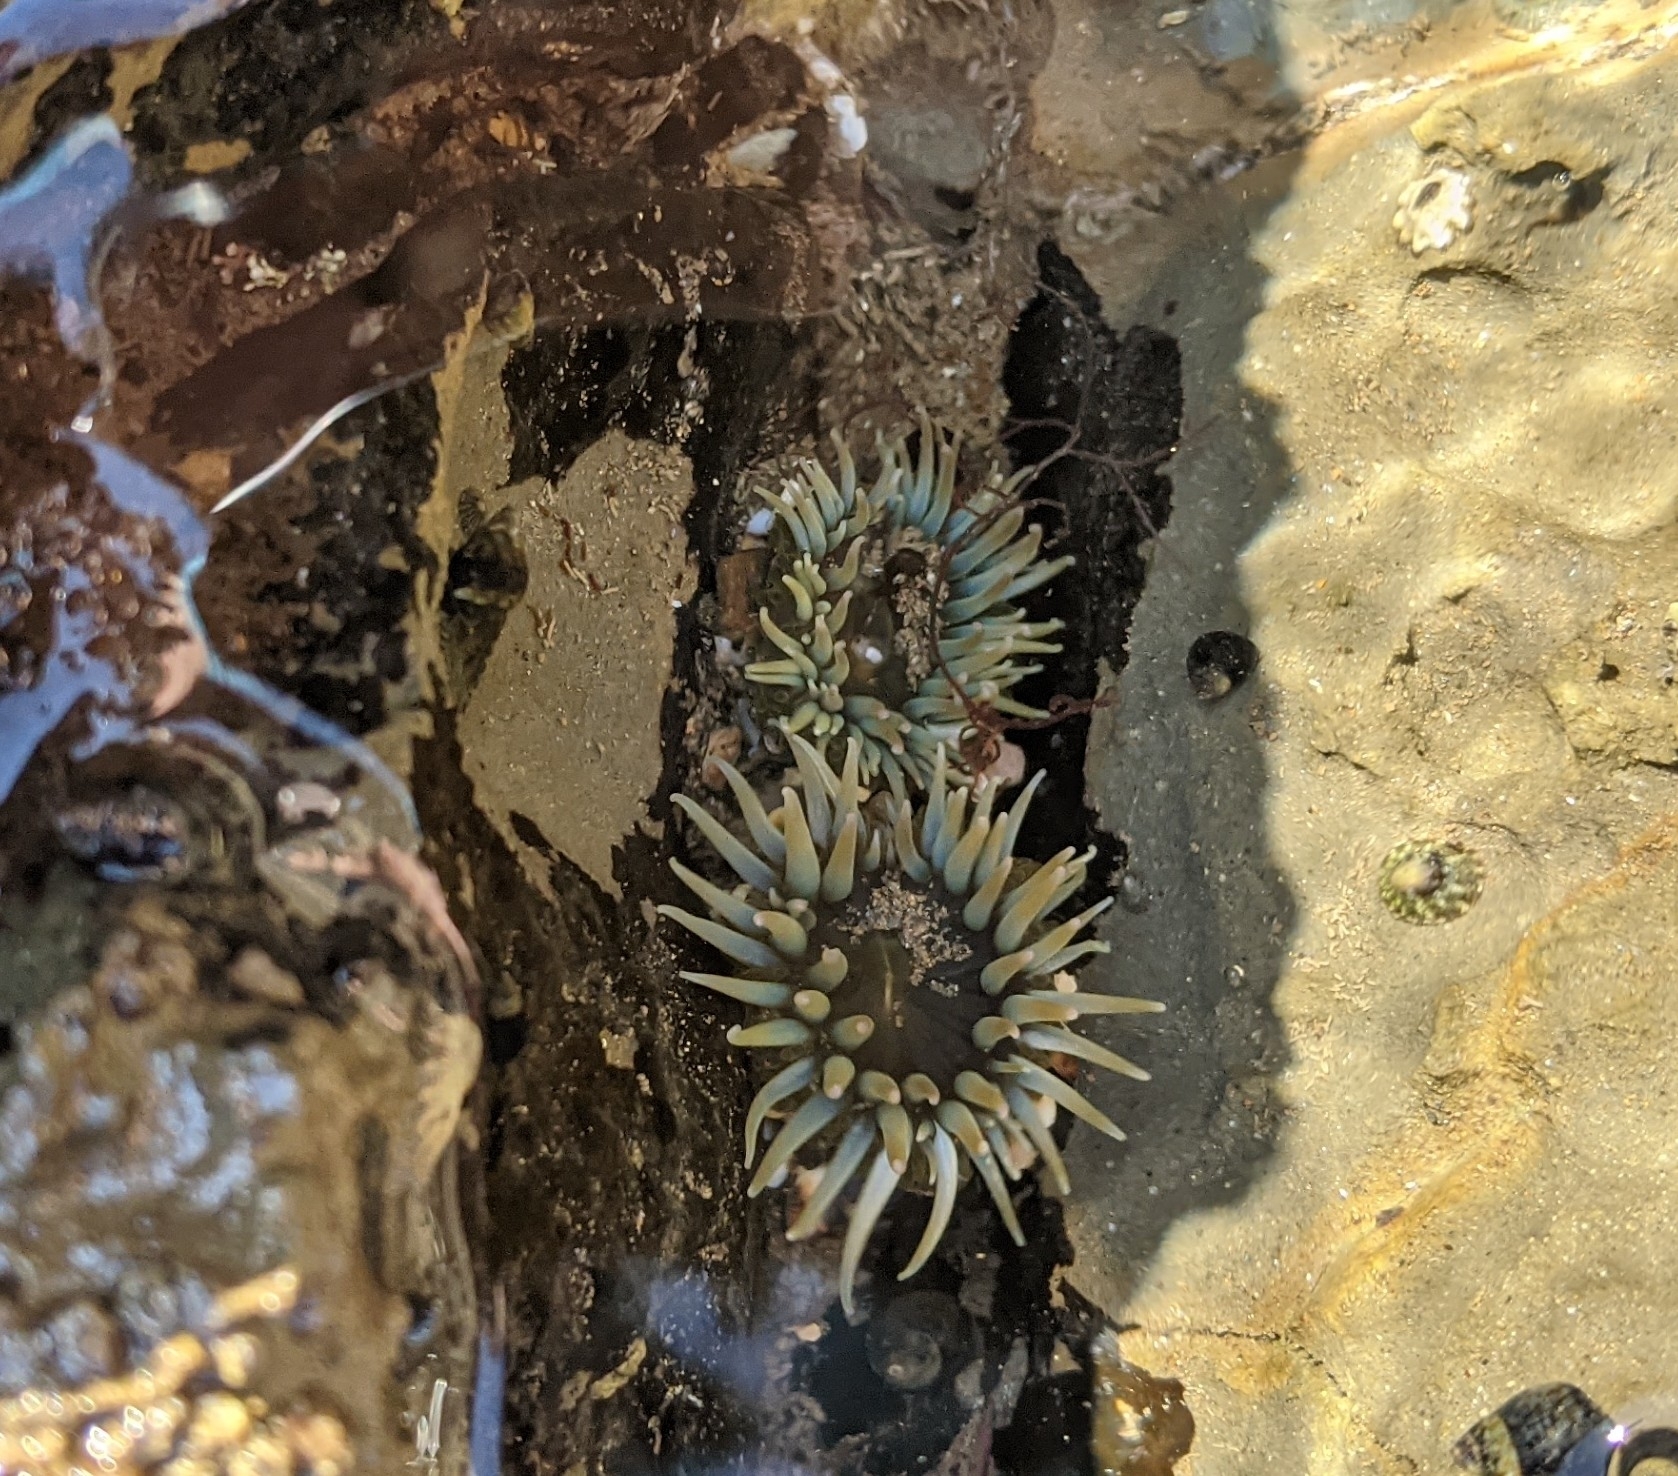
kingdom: Animalia
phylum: Cnidaria
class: Anthozoa
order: Actiniaria
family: Actiniidae
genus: Anthopleura
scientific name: Anthopleura elegantissima
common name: Clonal anemone
